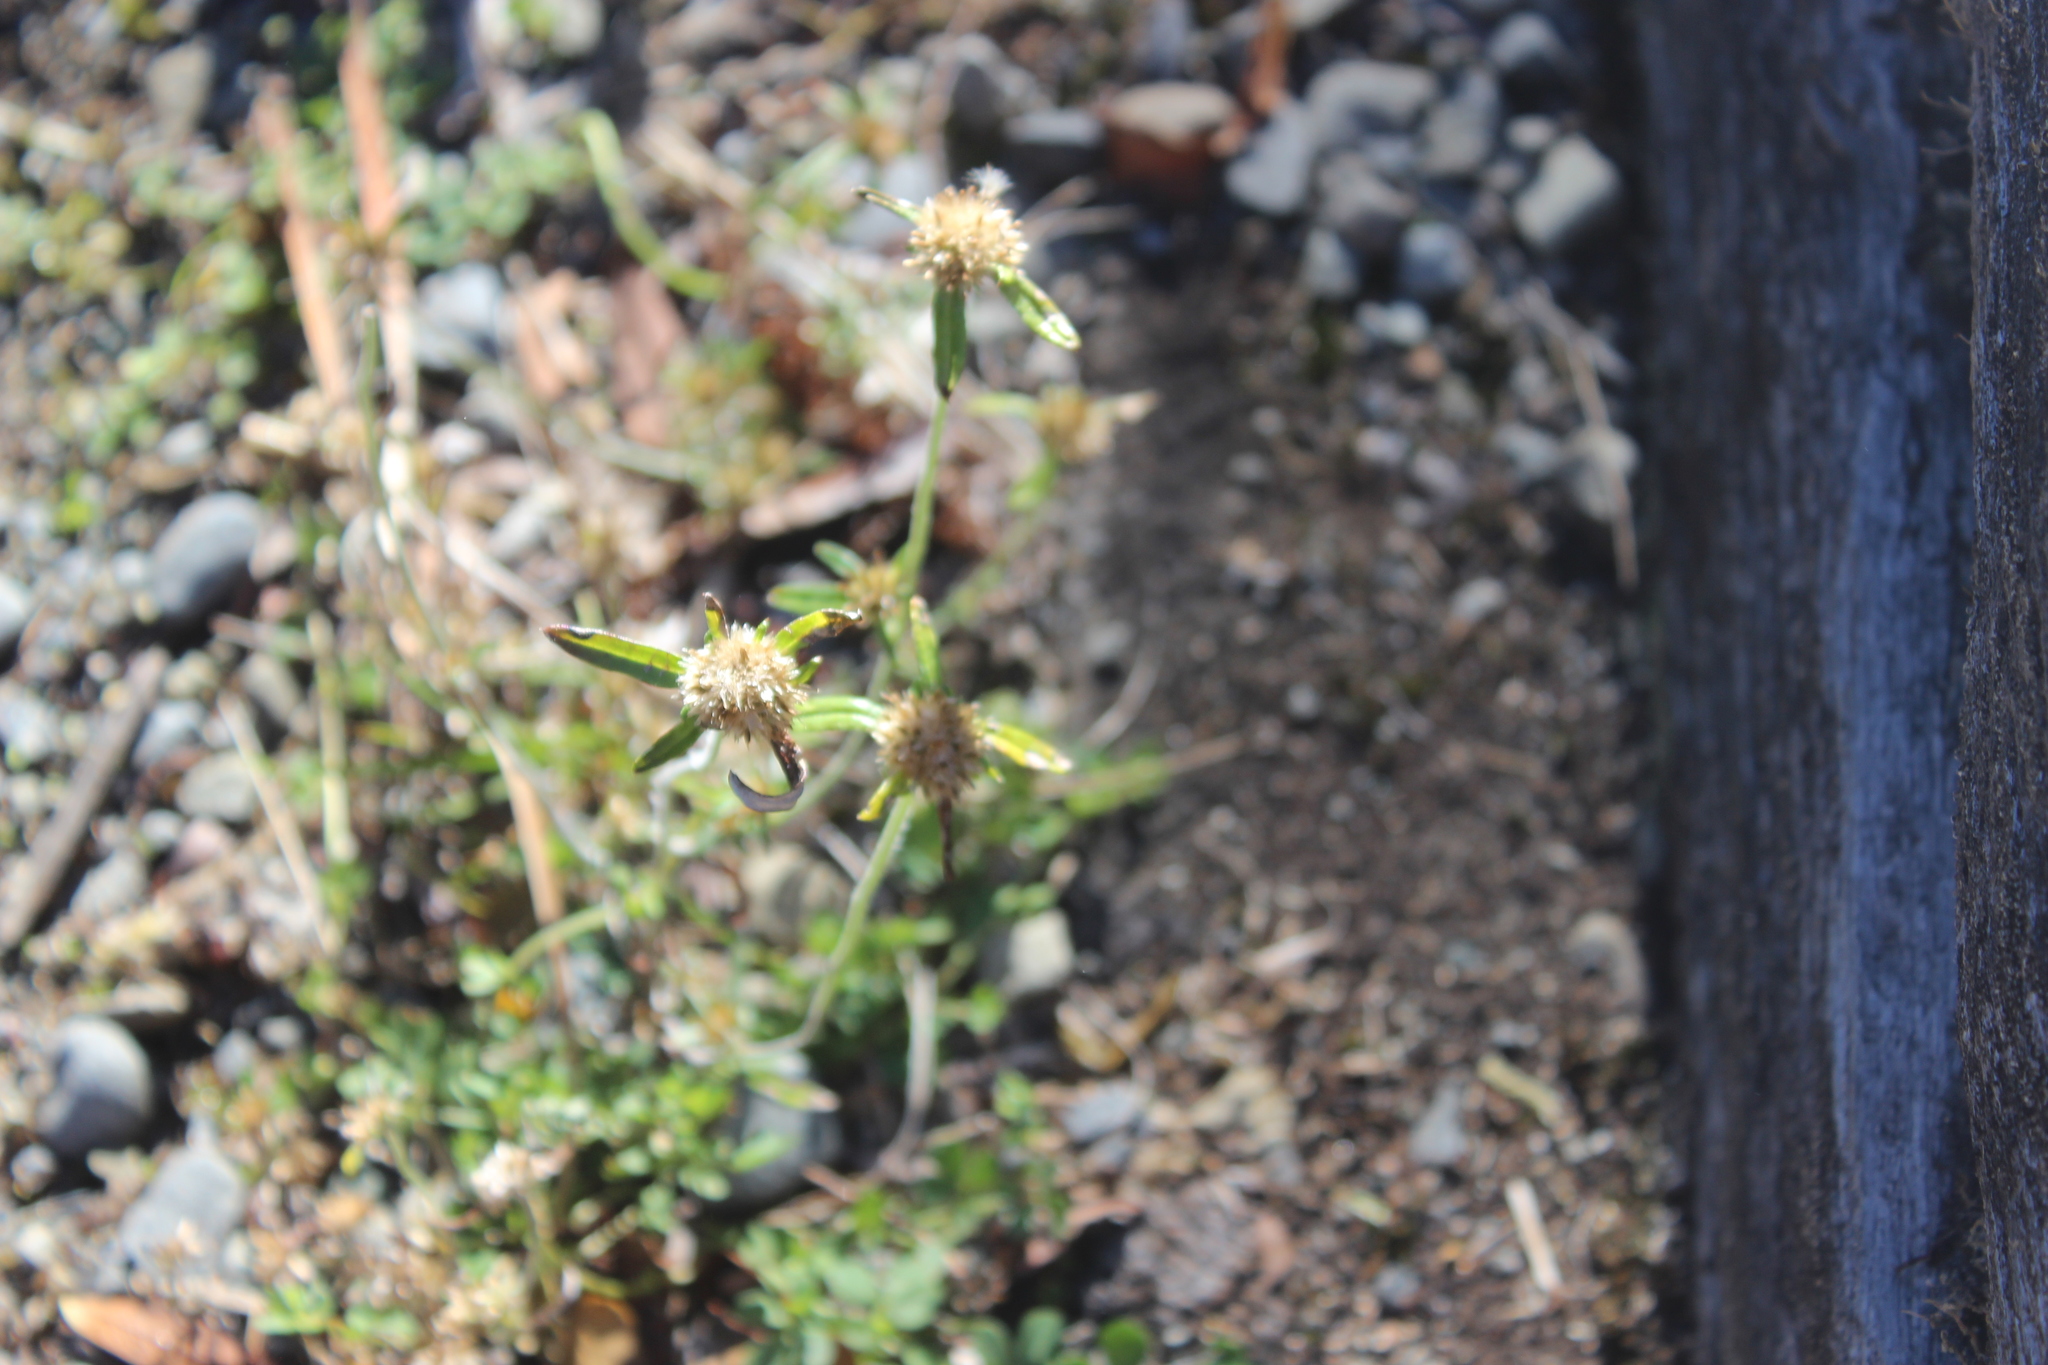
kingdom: Plantae
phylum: Tracheophyta
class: Magnoliopsida
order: Asterales
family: Asteraceae
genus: Euchiton
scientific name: Euchiton sphaericus
